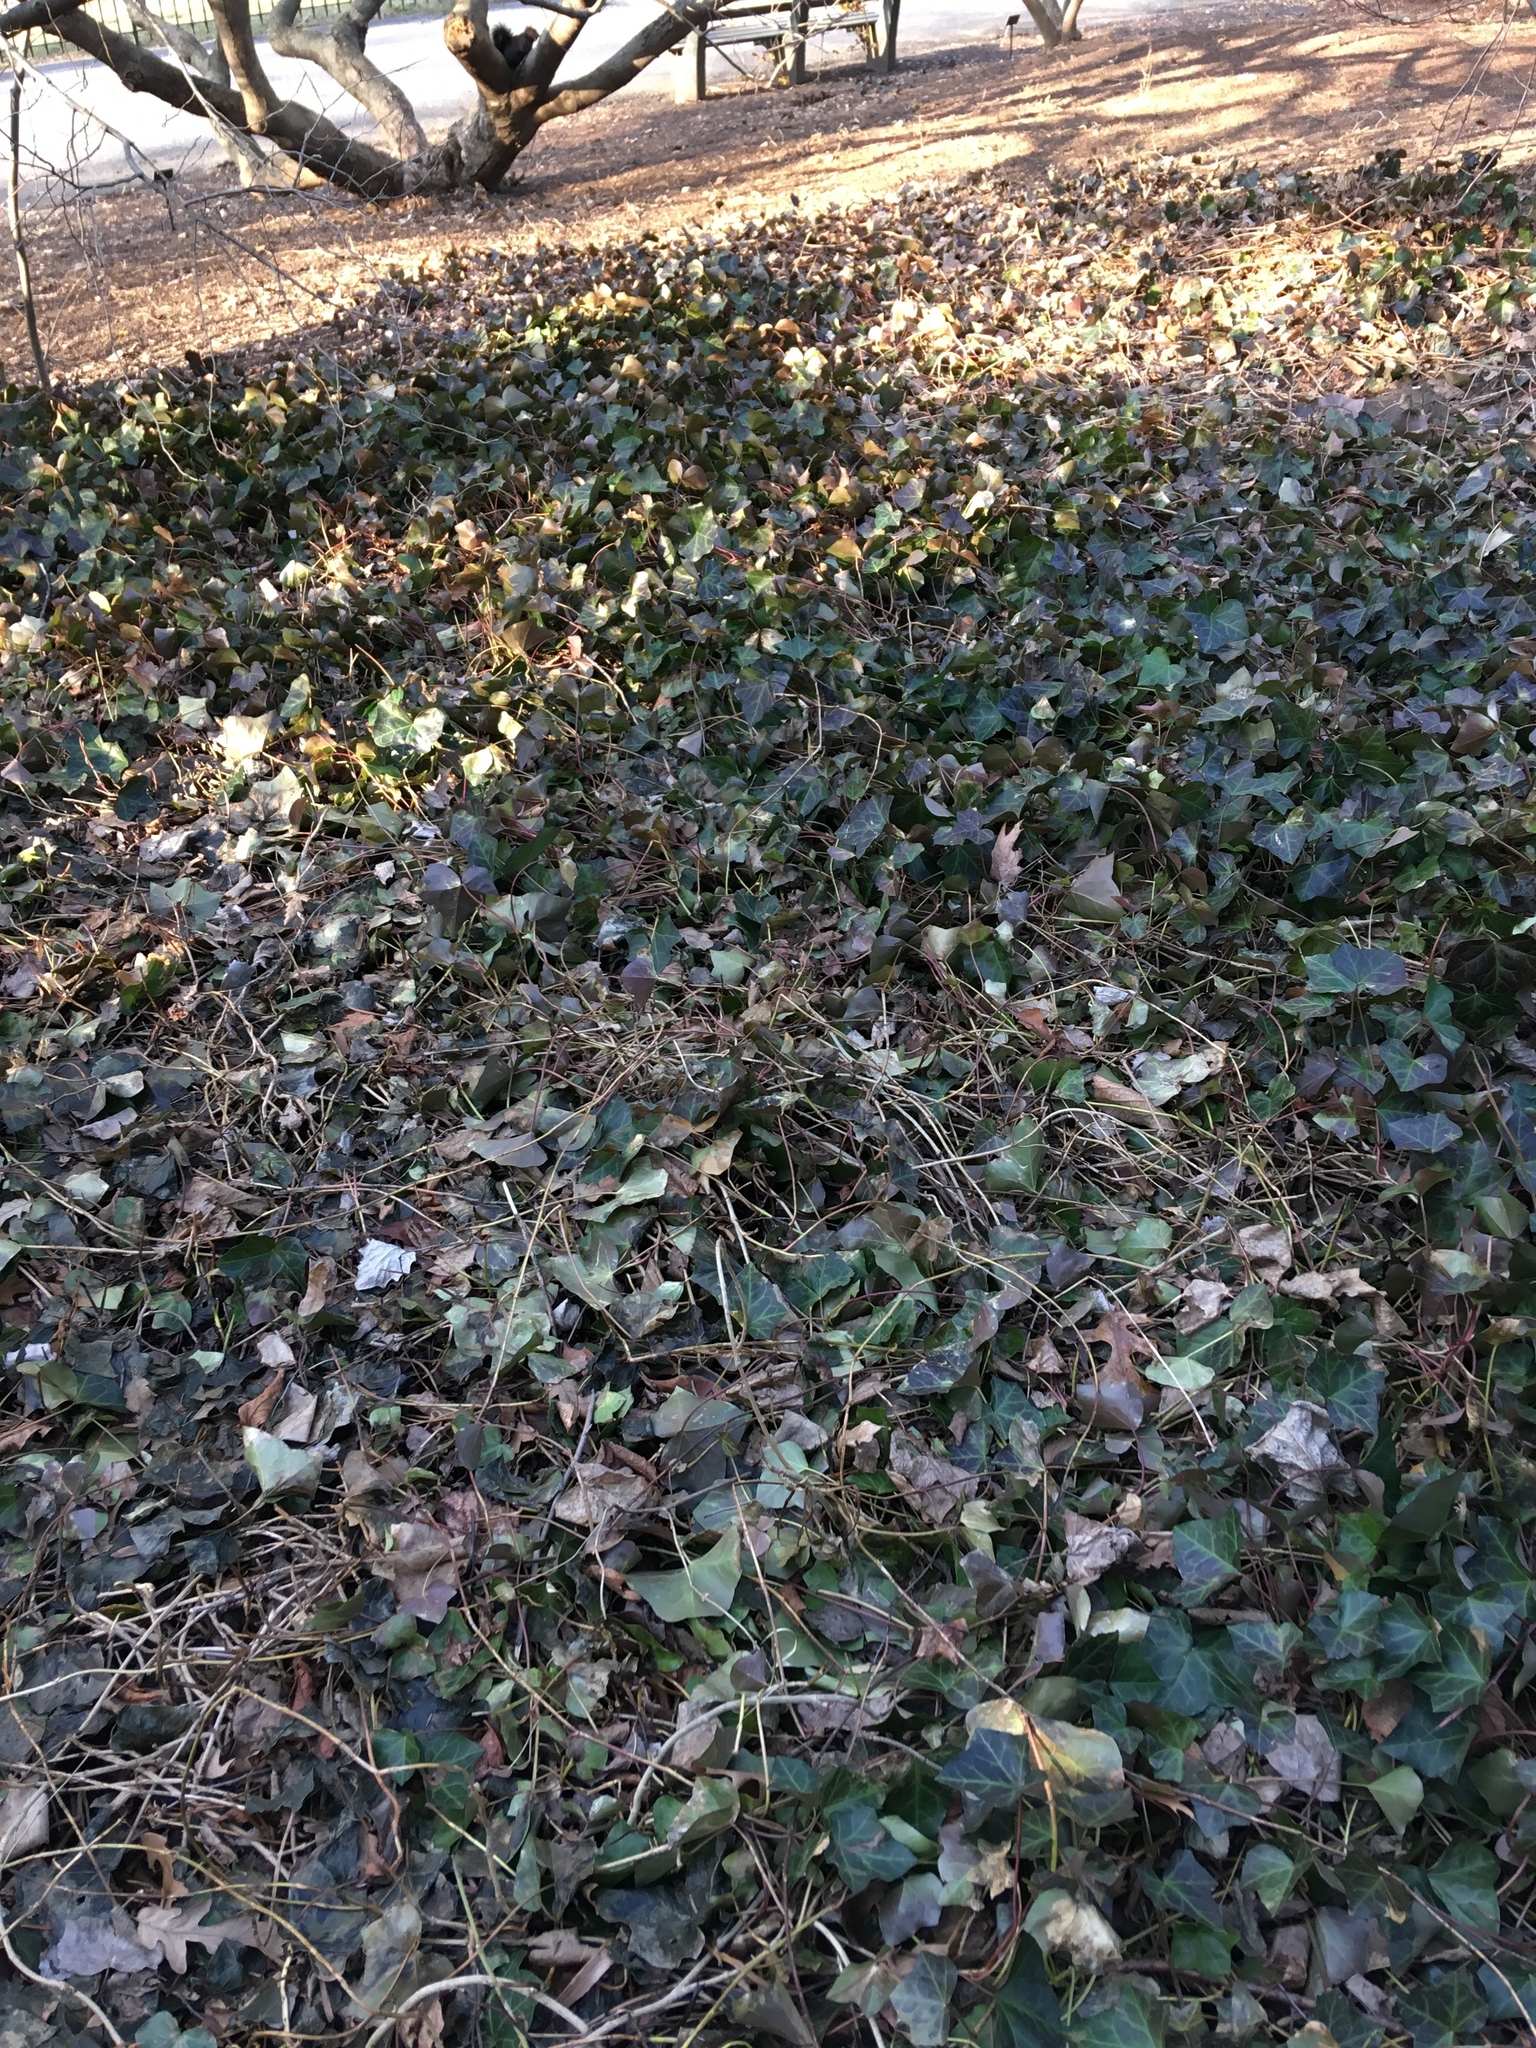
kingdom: Plantae
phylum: Tracheophyta
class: Magnoliopsida
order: Apiales
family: Araliaceae
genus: Hedera
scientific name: Hedera helix
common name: Ivy
